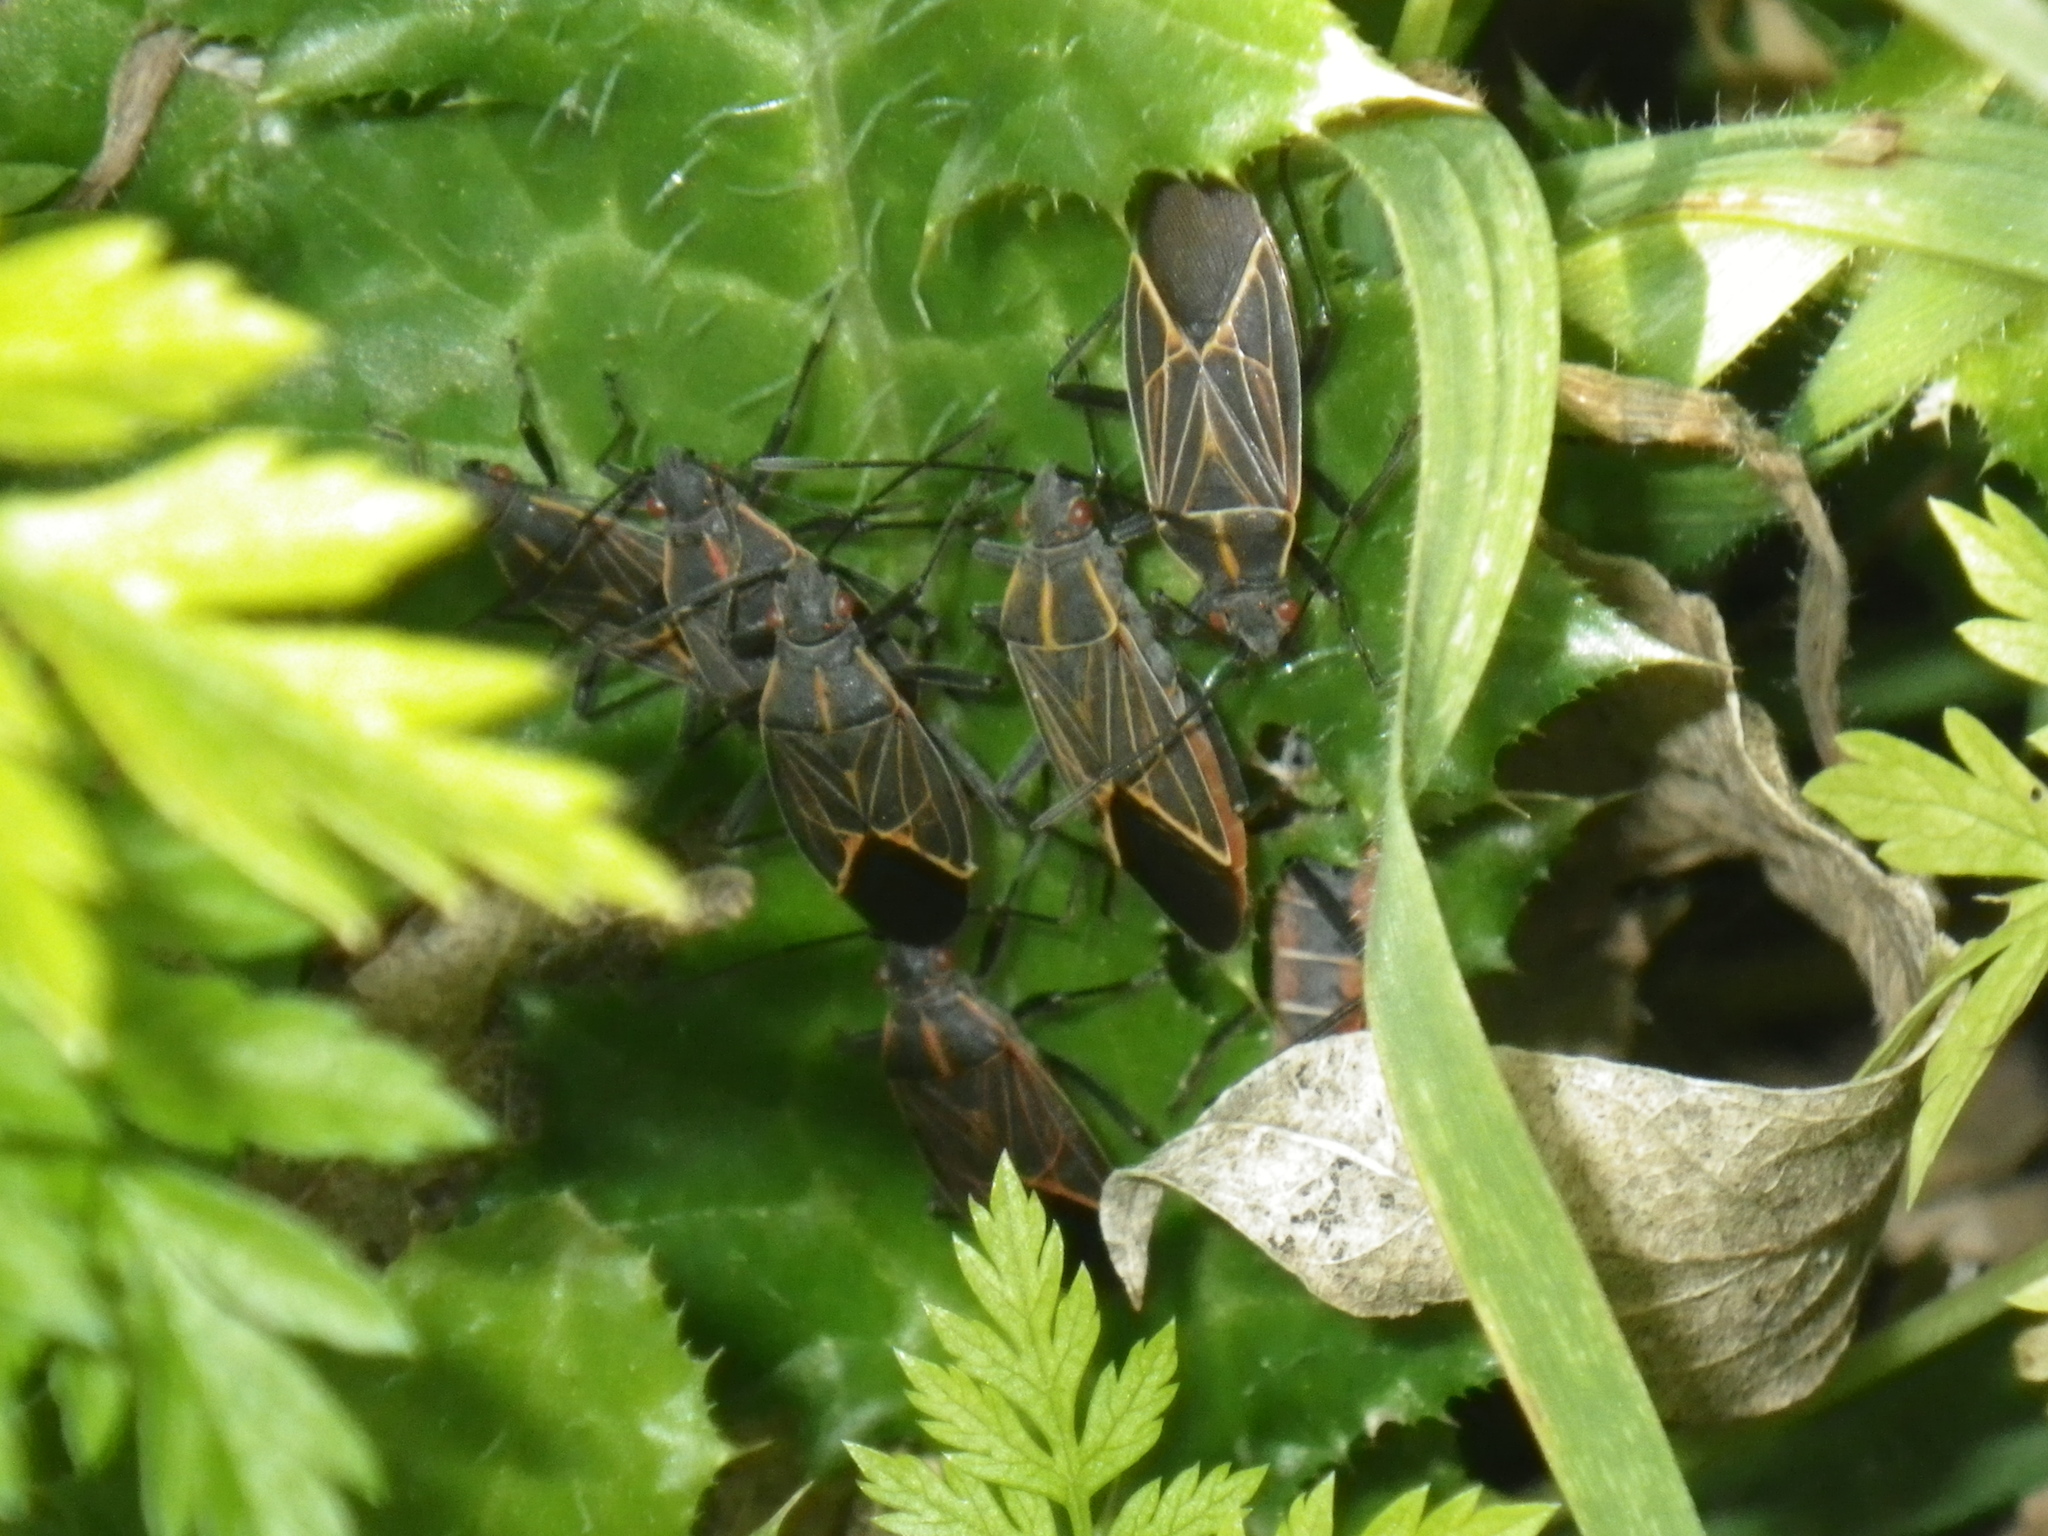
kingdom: Animalia
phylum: Arthropoda
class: Insecta
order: Hemiptera
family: Rhopalidae
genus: Boisea
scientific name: Boisea rubrolineata
